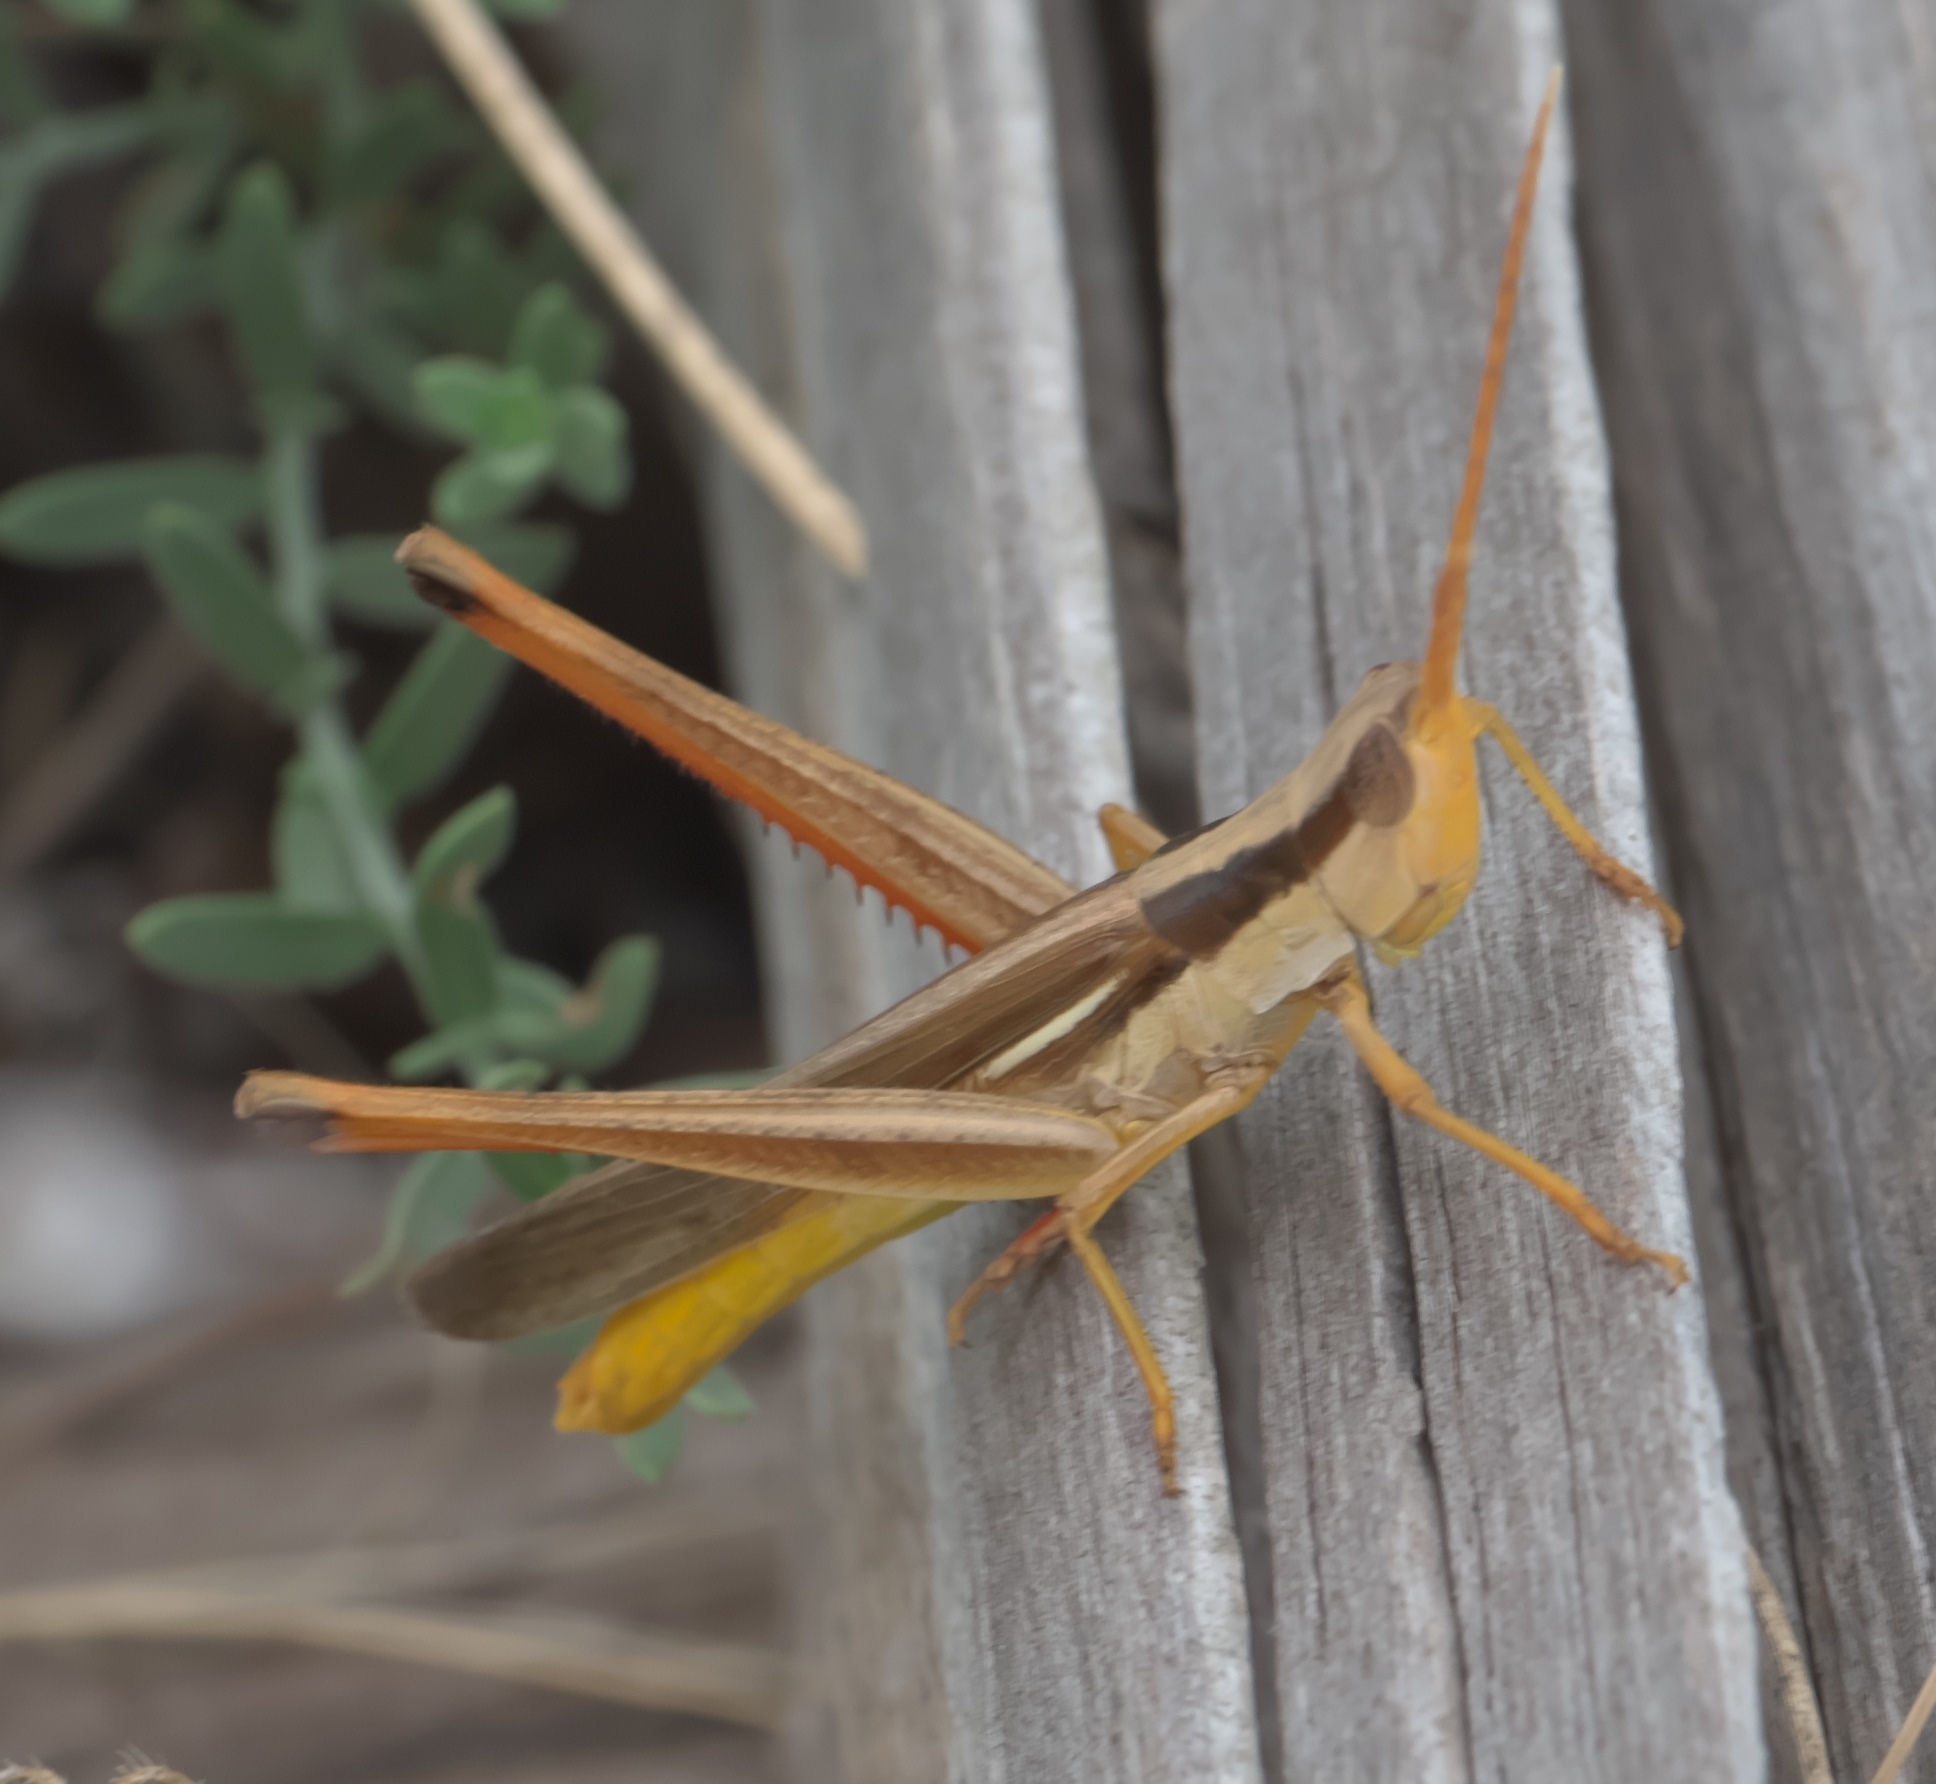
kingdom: Animalia
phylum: Arthropoda
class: Insecta
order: Orthoptera
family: Acrididae
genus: Mermiria
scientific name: Mermiria bivittata
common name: Two-striped mermiria grasshopper
